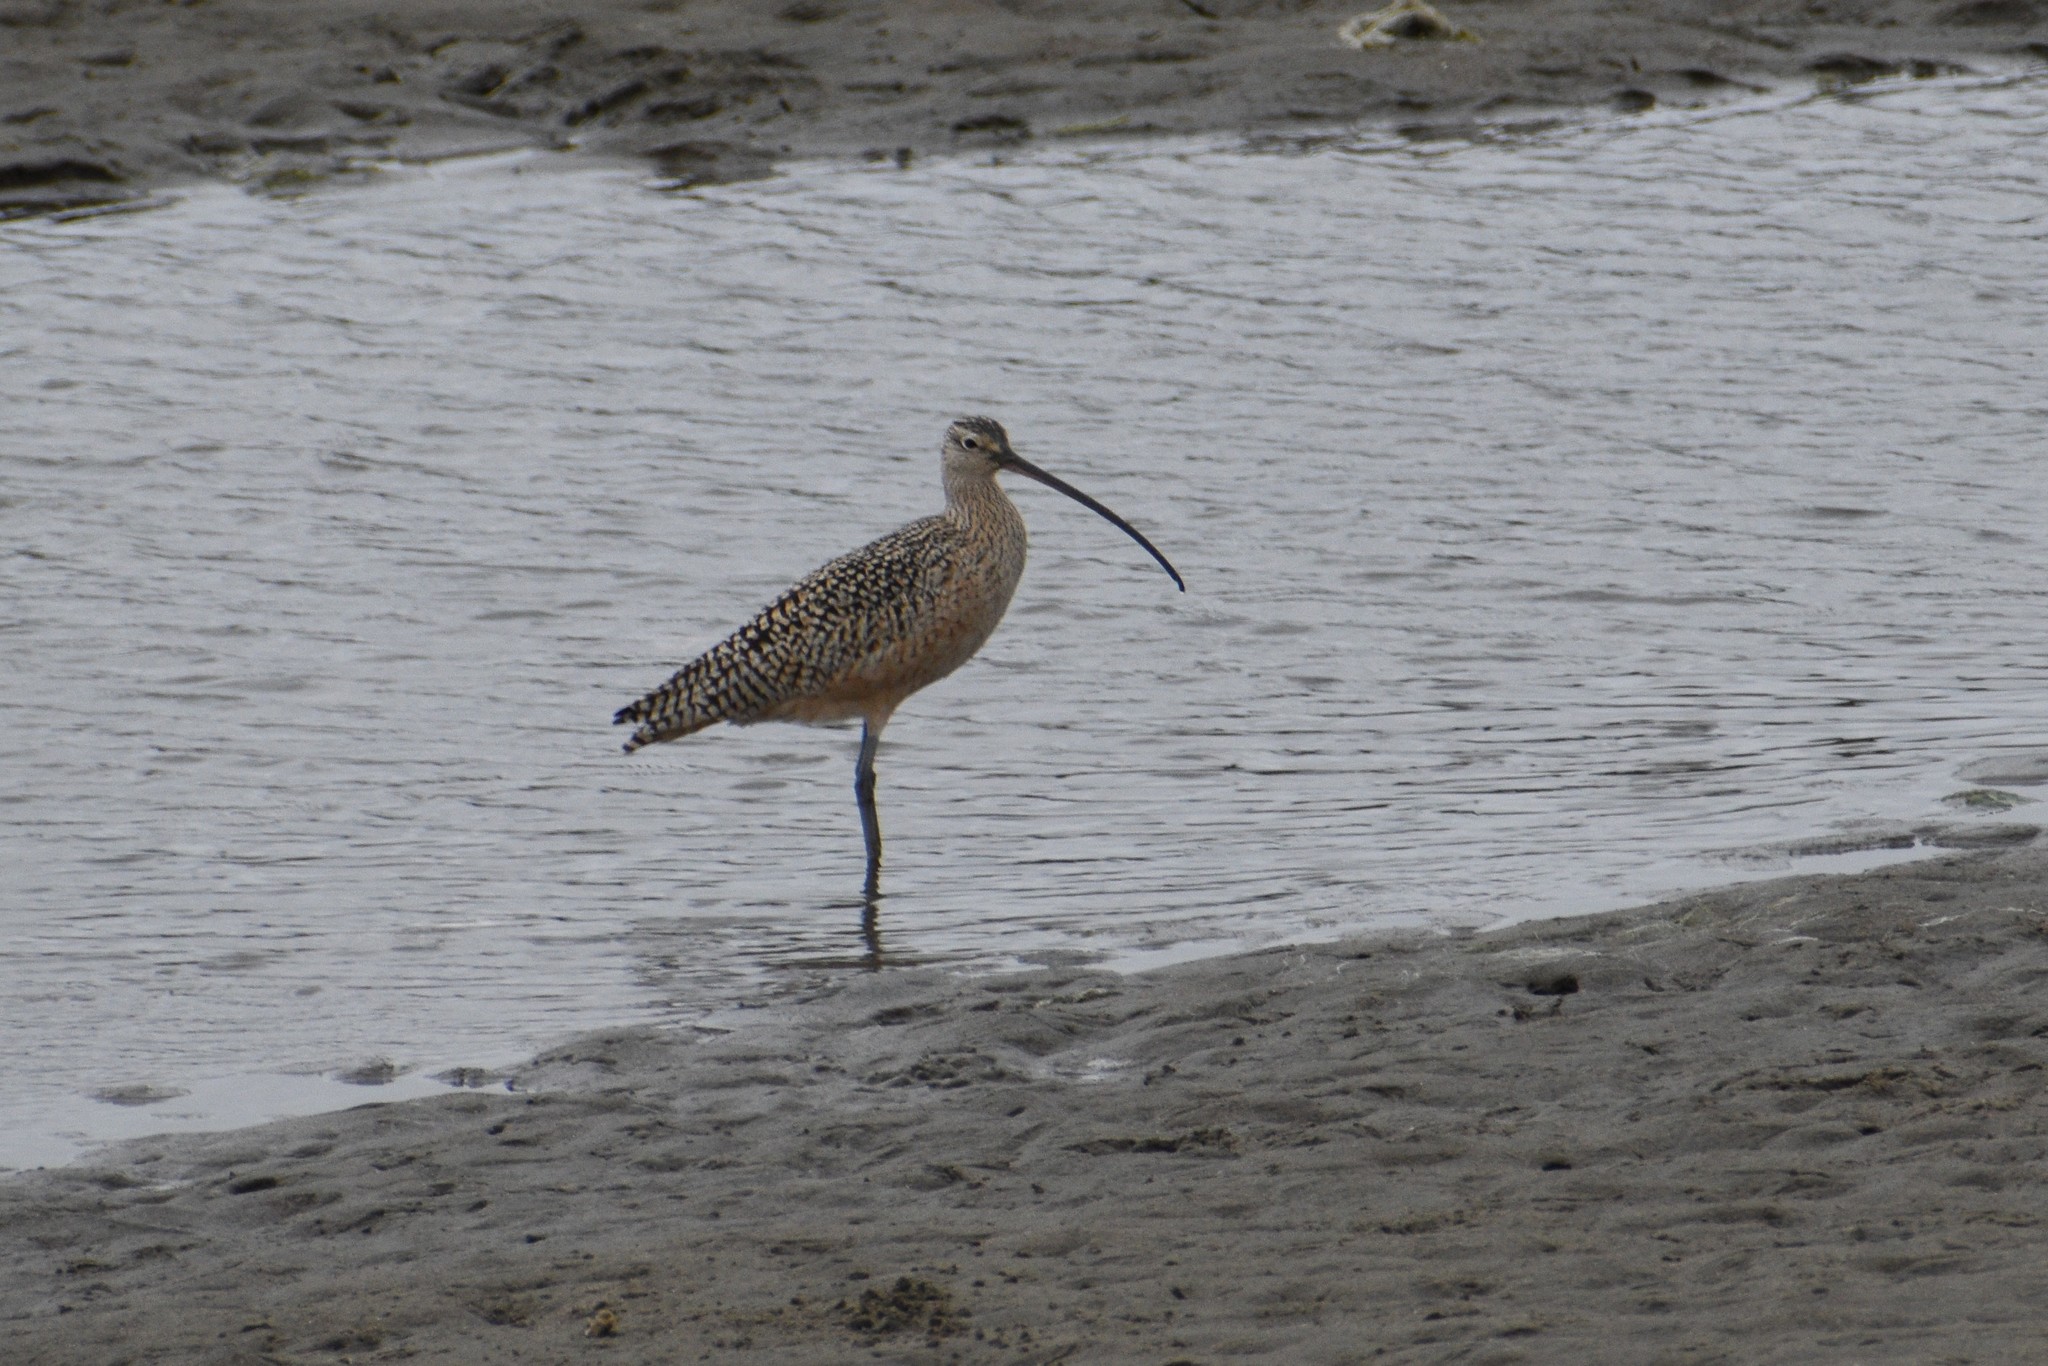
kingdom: Animalia
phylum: Chordata
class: Aves
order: Charadriiformes
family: Scolopacidae
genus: Numenius
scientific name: Numenius americanus
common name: Long-billed curlew
